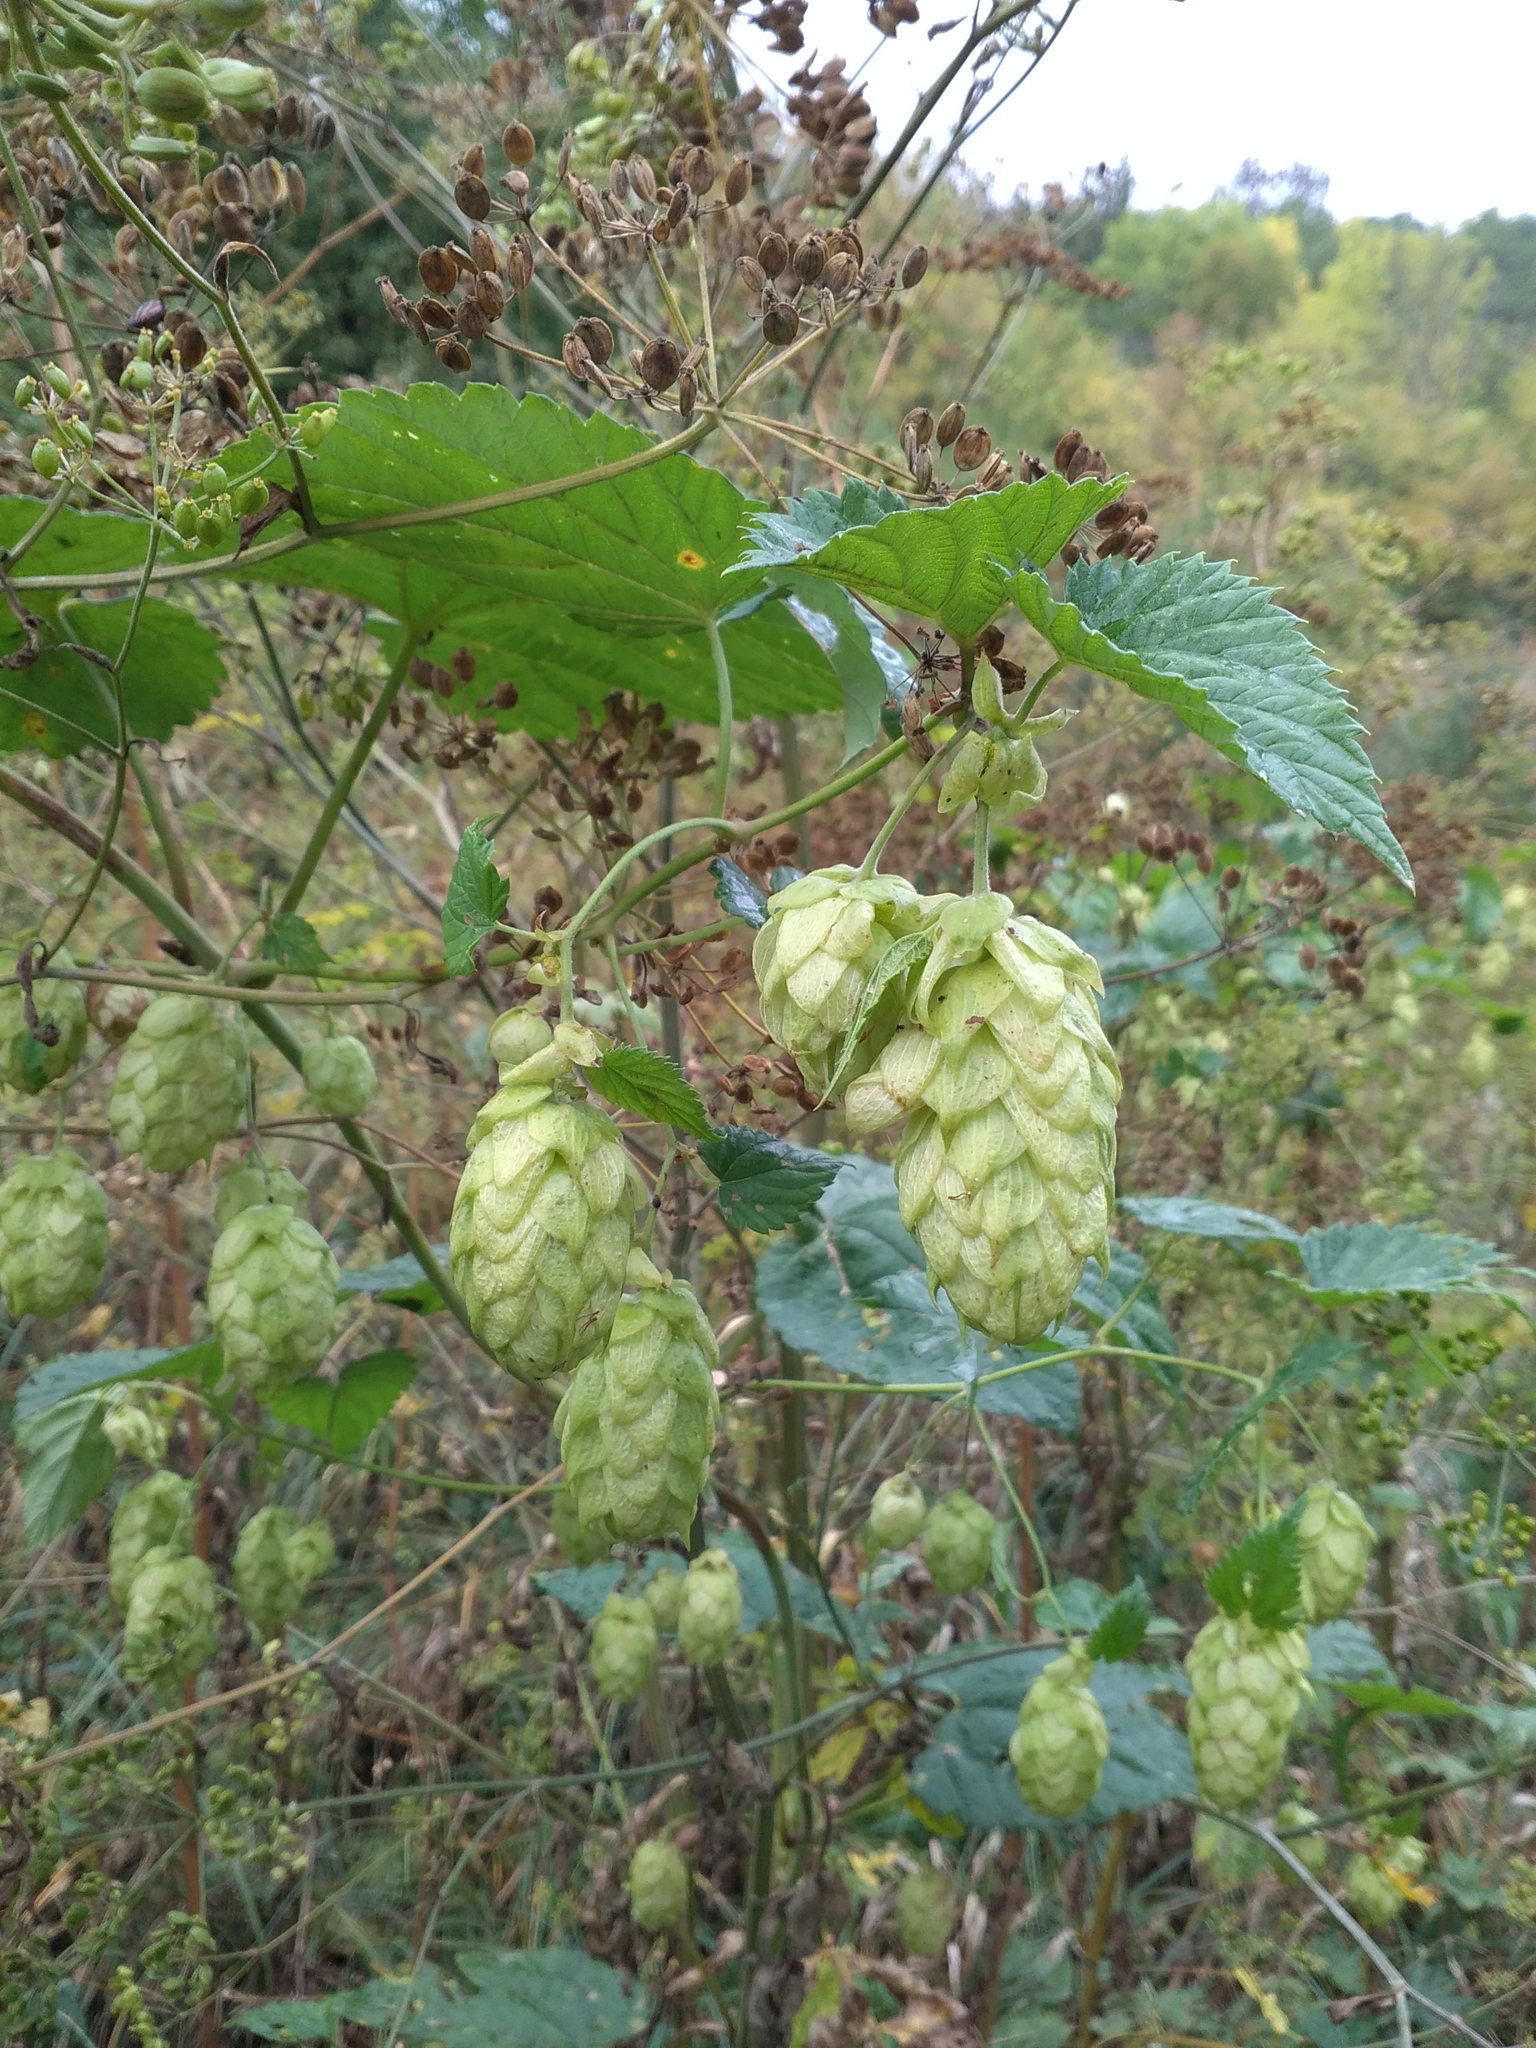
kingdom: Plantae
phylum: Tracheophyta
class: Magnoliopsida
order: Rosales
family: Cannabaceae
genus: Humulus
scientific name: Humulus lupulus
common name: Hop
